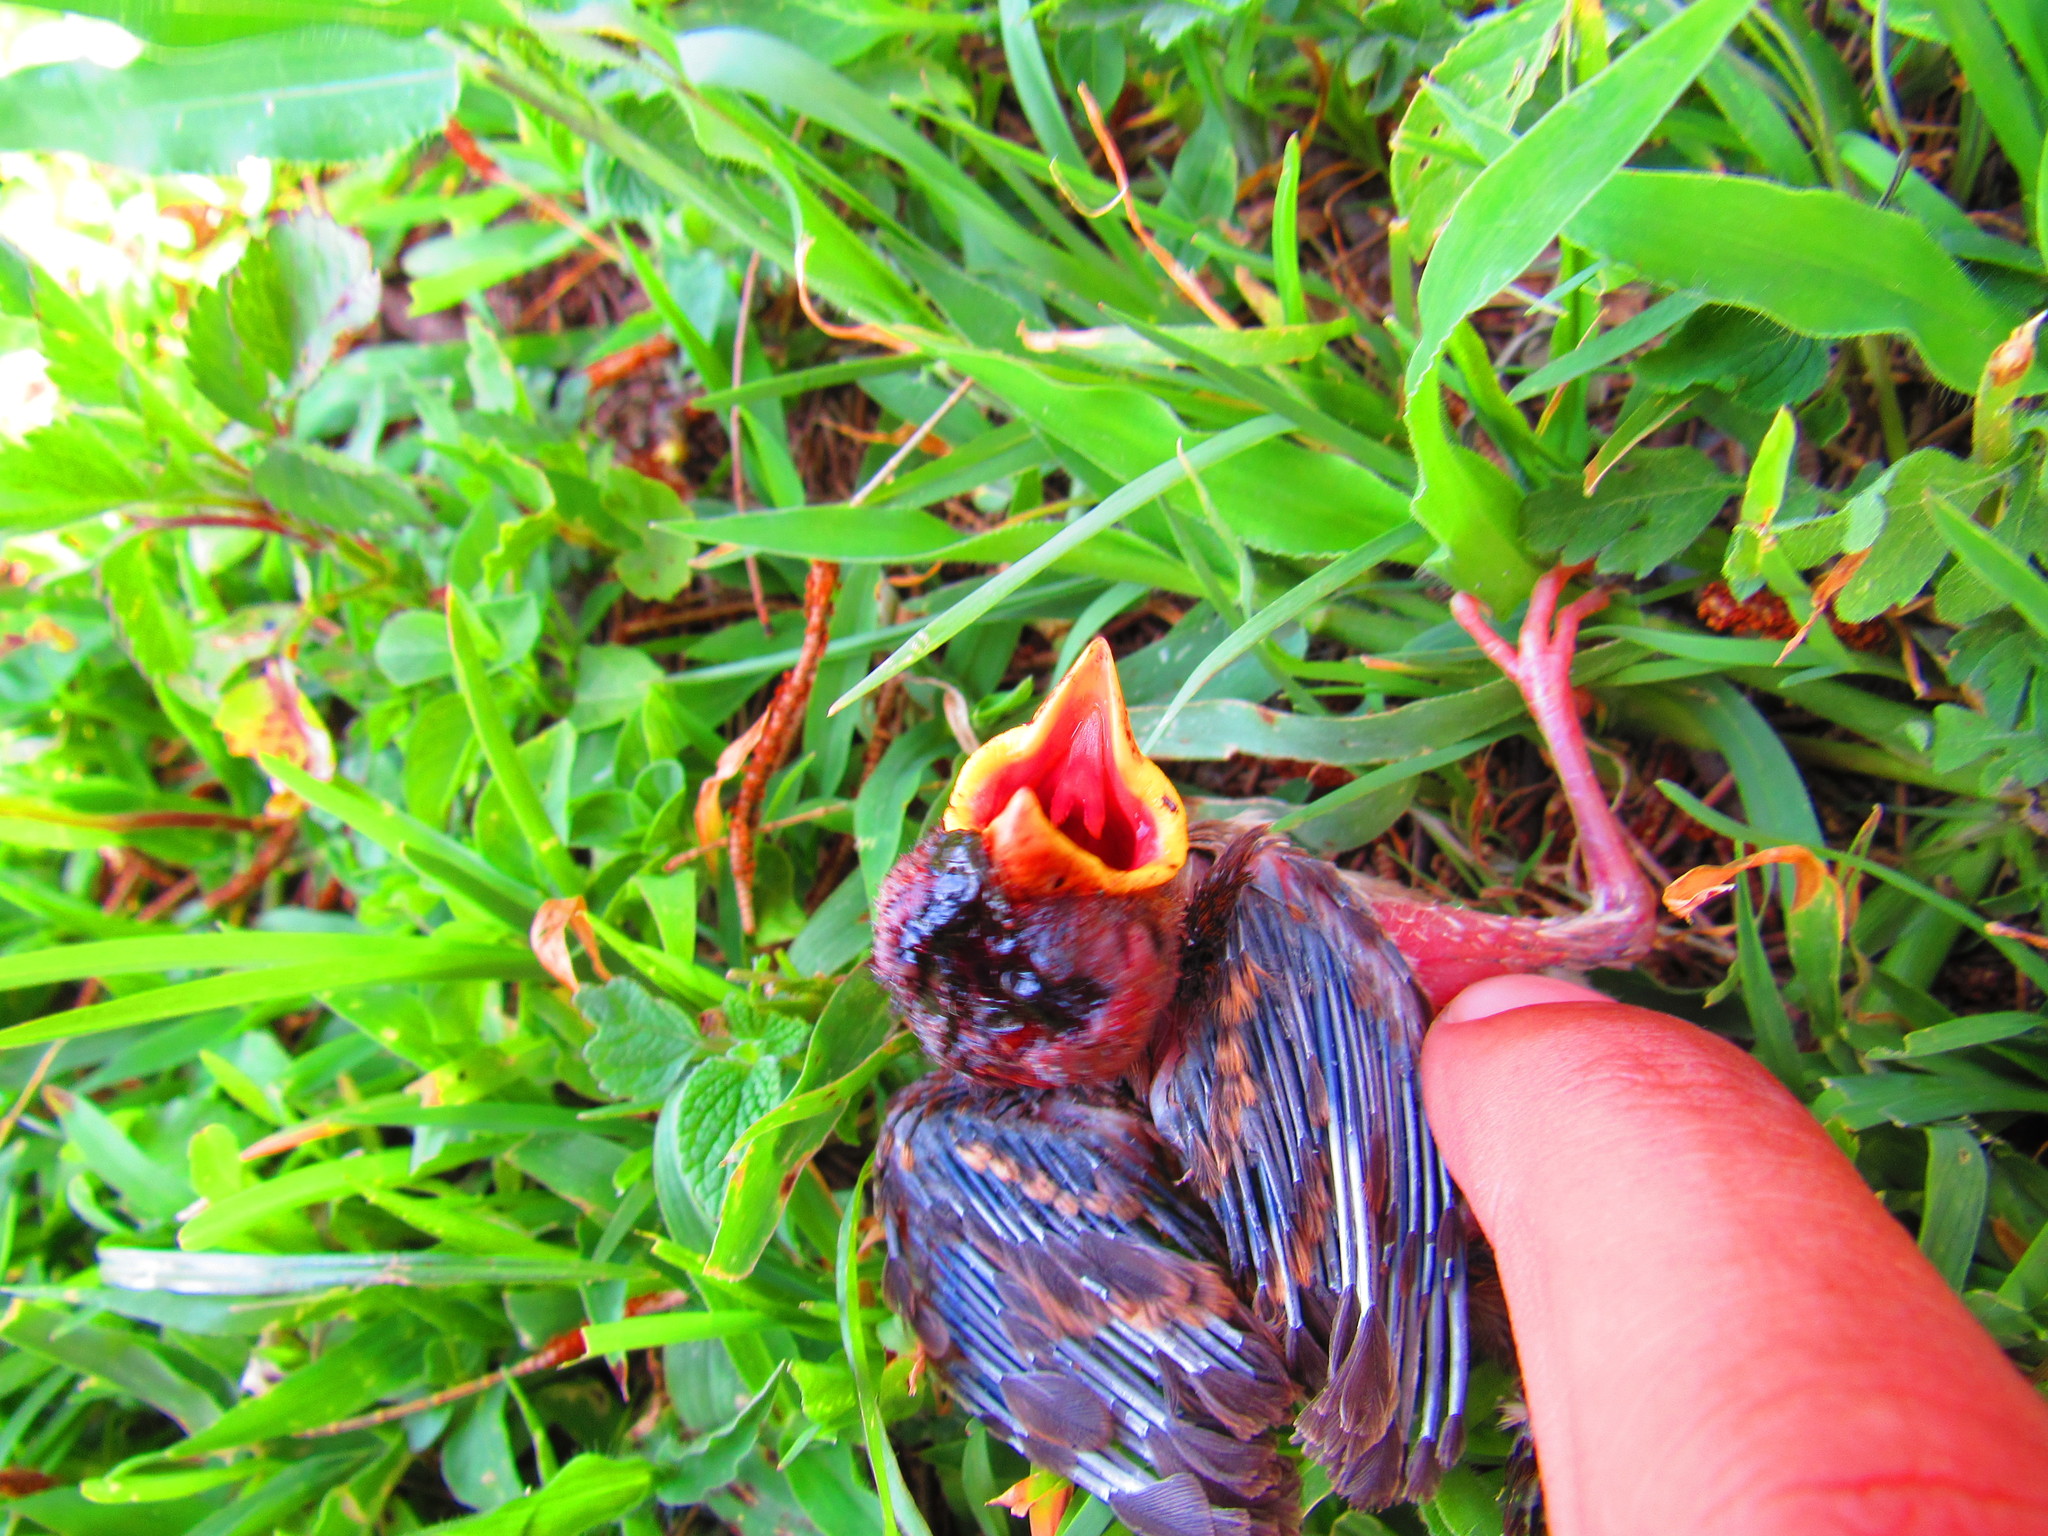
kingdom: Animalia
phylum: Chordata
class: Aves
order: Passeriformes
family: Passeridae
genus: Passer
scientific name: Passer domesticus
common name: House sparrow
